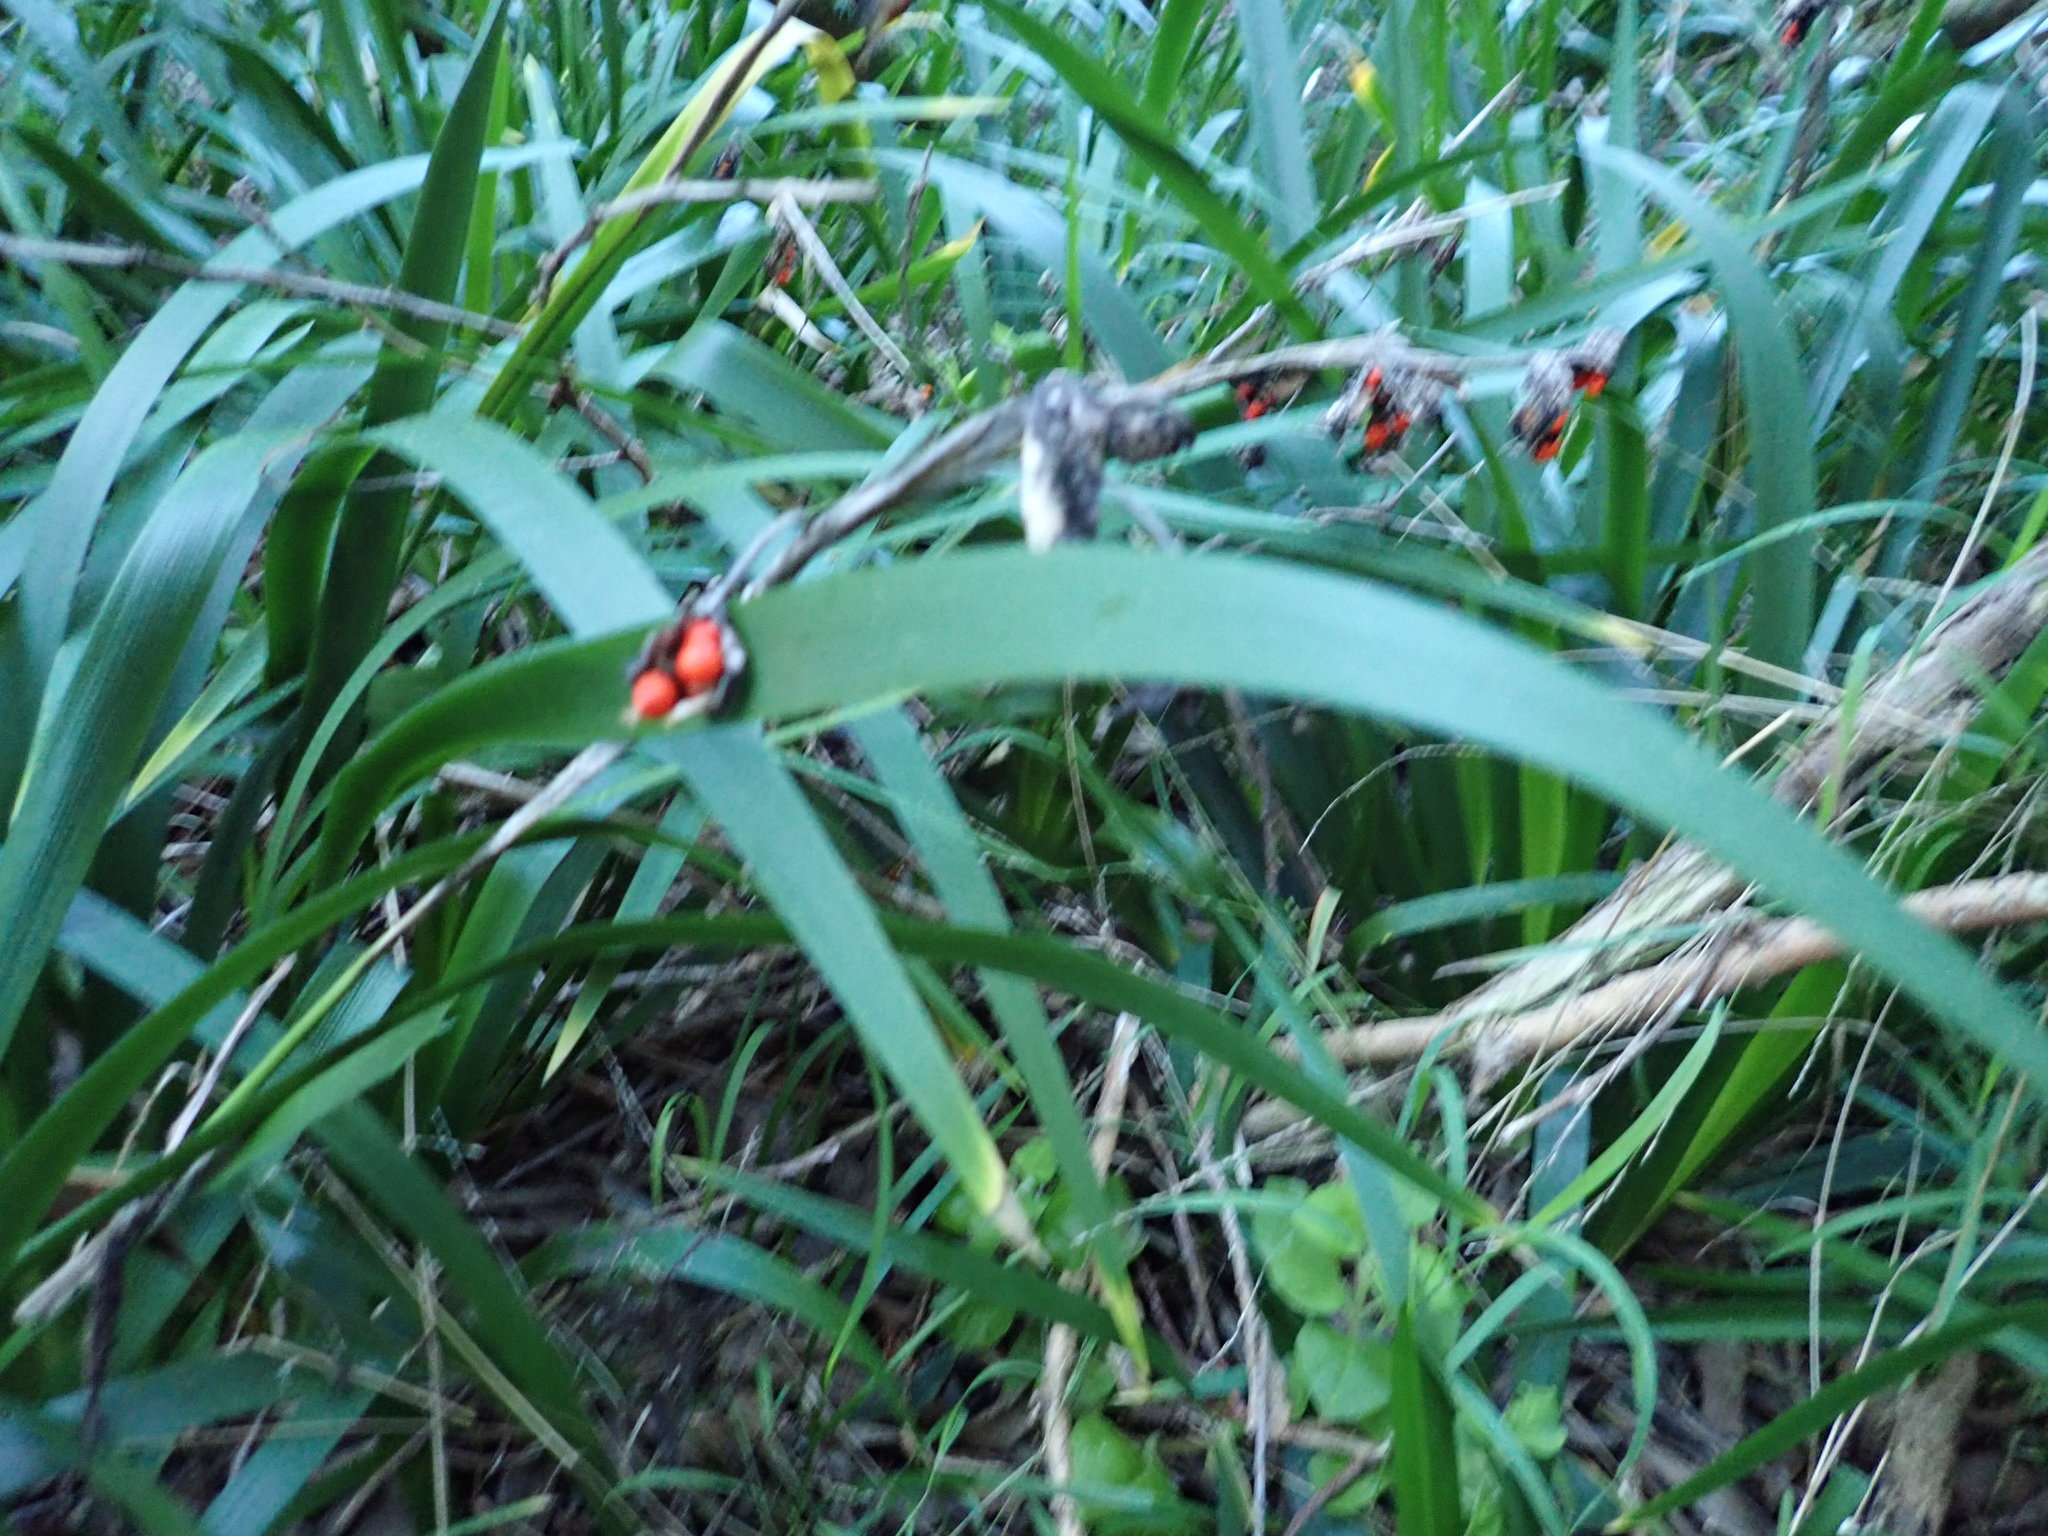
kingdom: Plantae
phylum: Tracheophyta
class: Liliopsida
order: Asparagales
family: Iridaceae
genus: Iris
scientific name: Iris foetidissima
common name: Stinking iris
